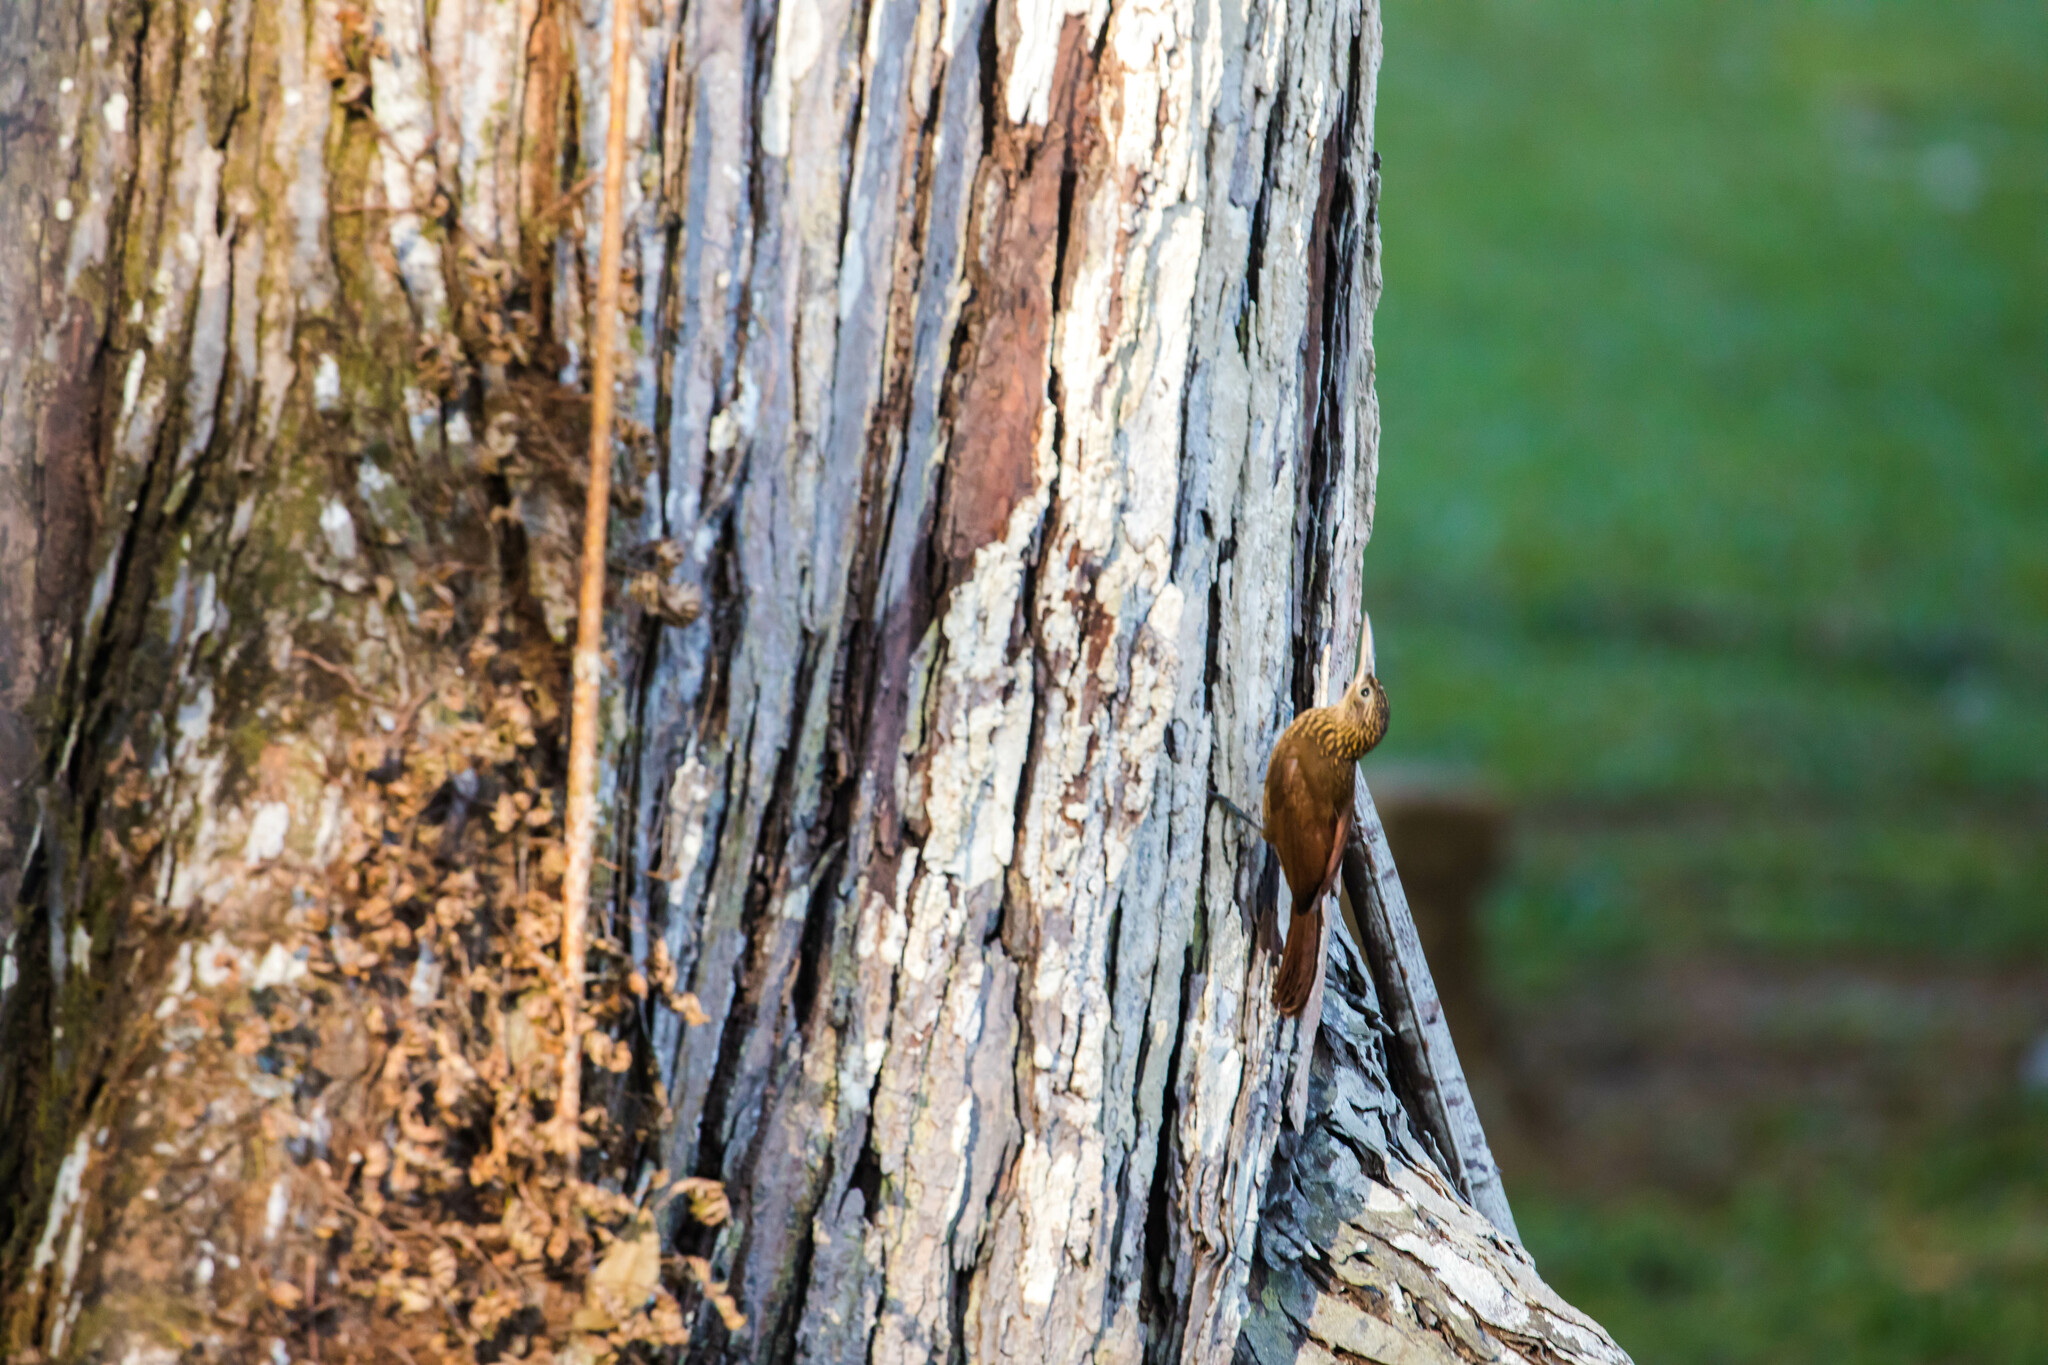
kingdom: Animalia
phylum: Chordata
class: Aves
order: Passeriformes
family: Furnariidae
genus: Xiphorhynchus
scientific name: Xiphorhynchus susurrans
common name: Cocoa woodcreeper
